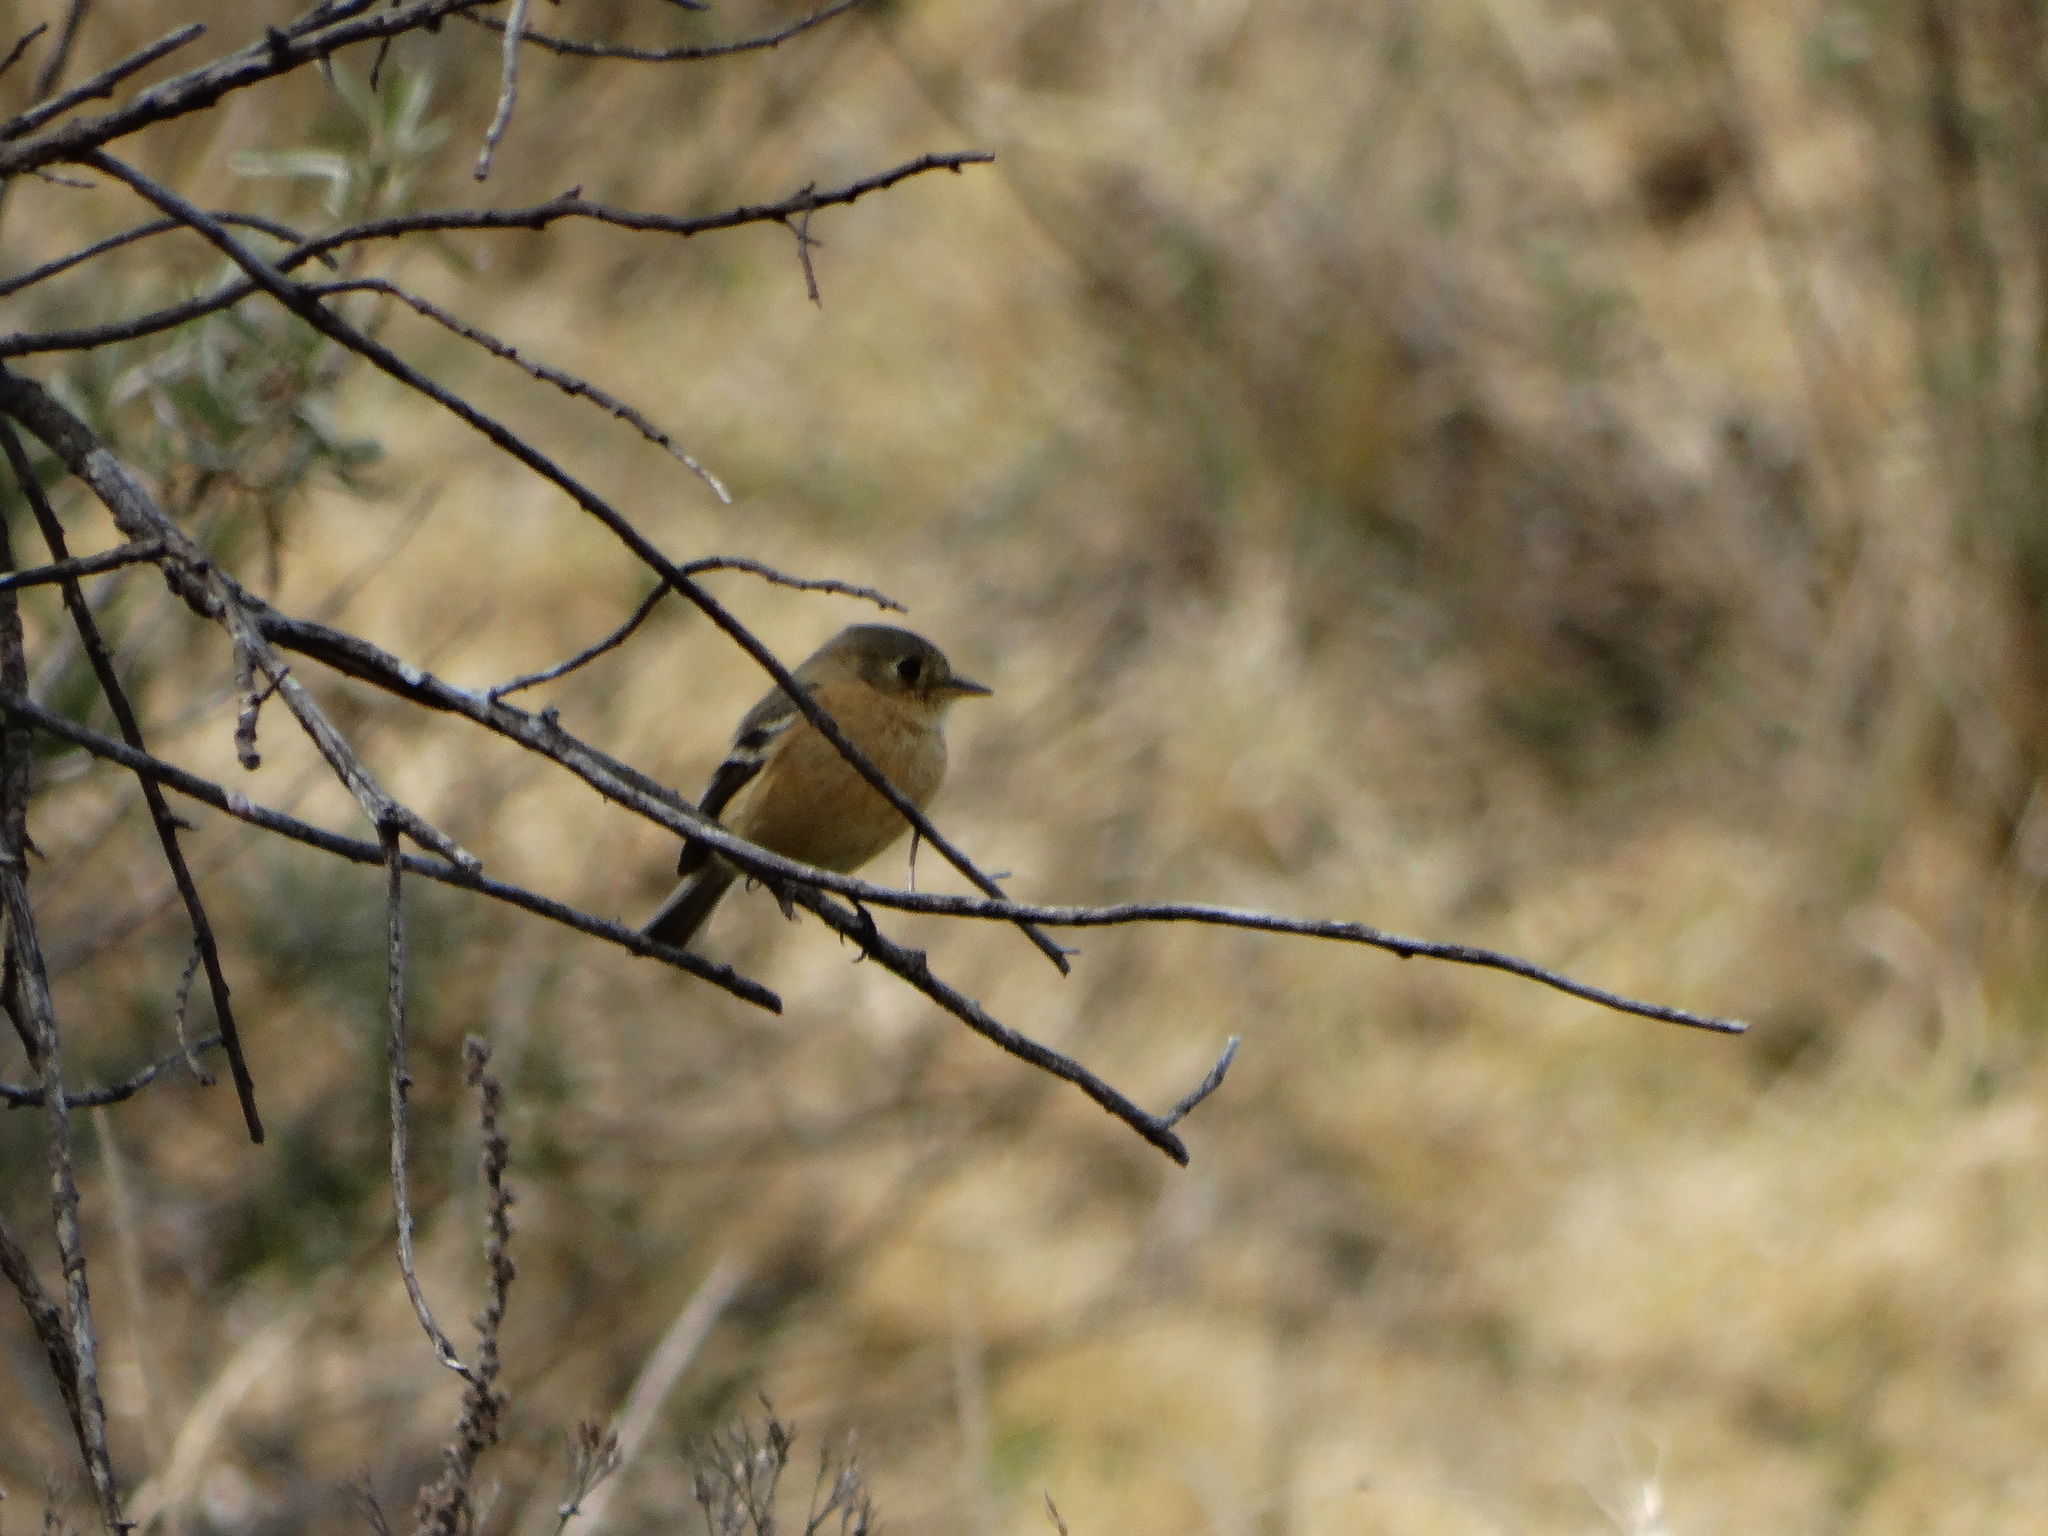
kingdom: Animalia
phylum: Chordata
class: Aves
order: Passeriformes
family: Tyrannidae
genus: Empidonax
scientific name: Empidonax fulvifrons
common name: Buff-breasted flycatcher
